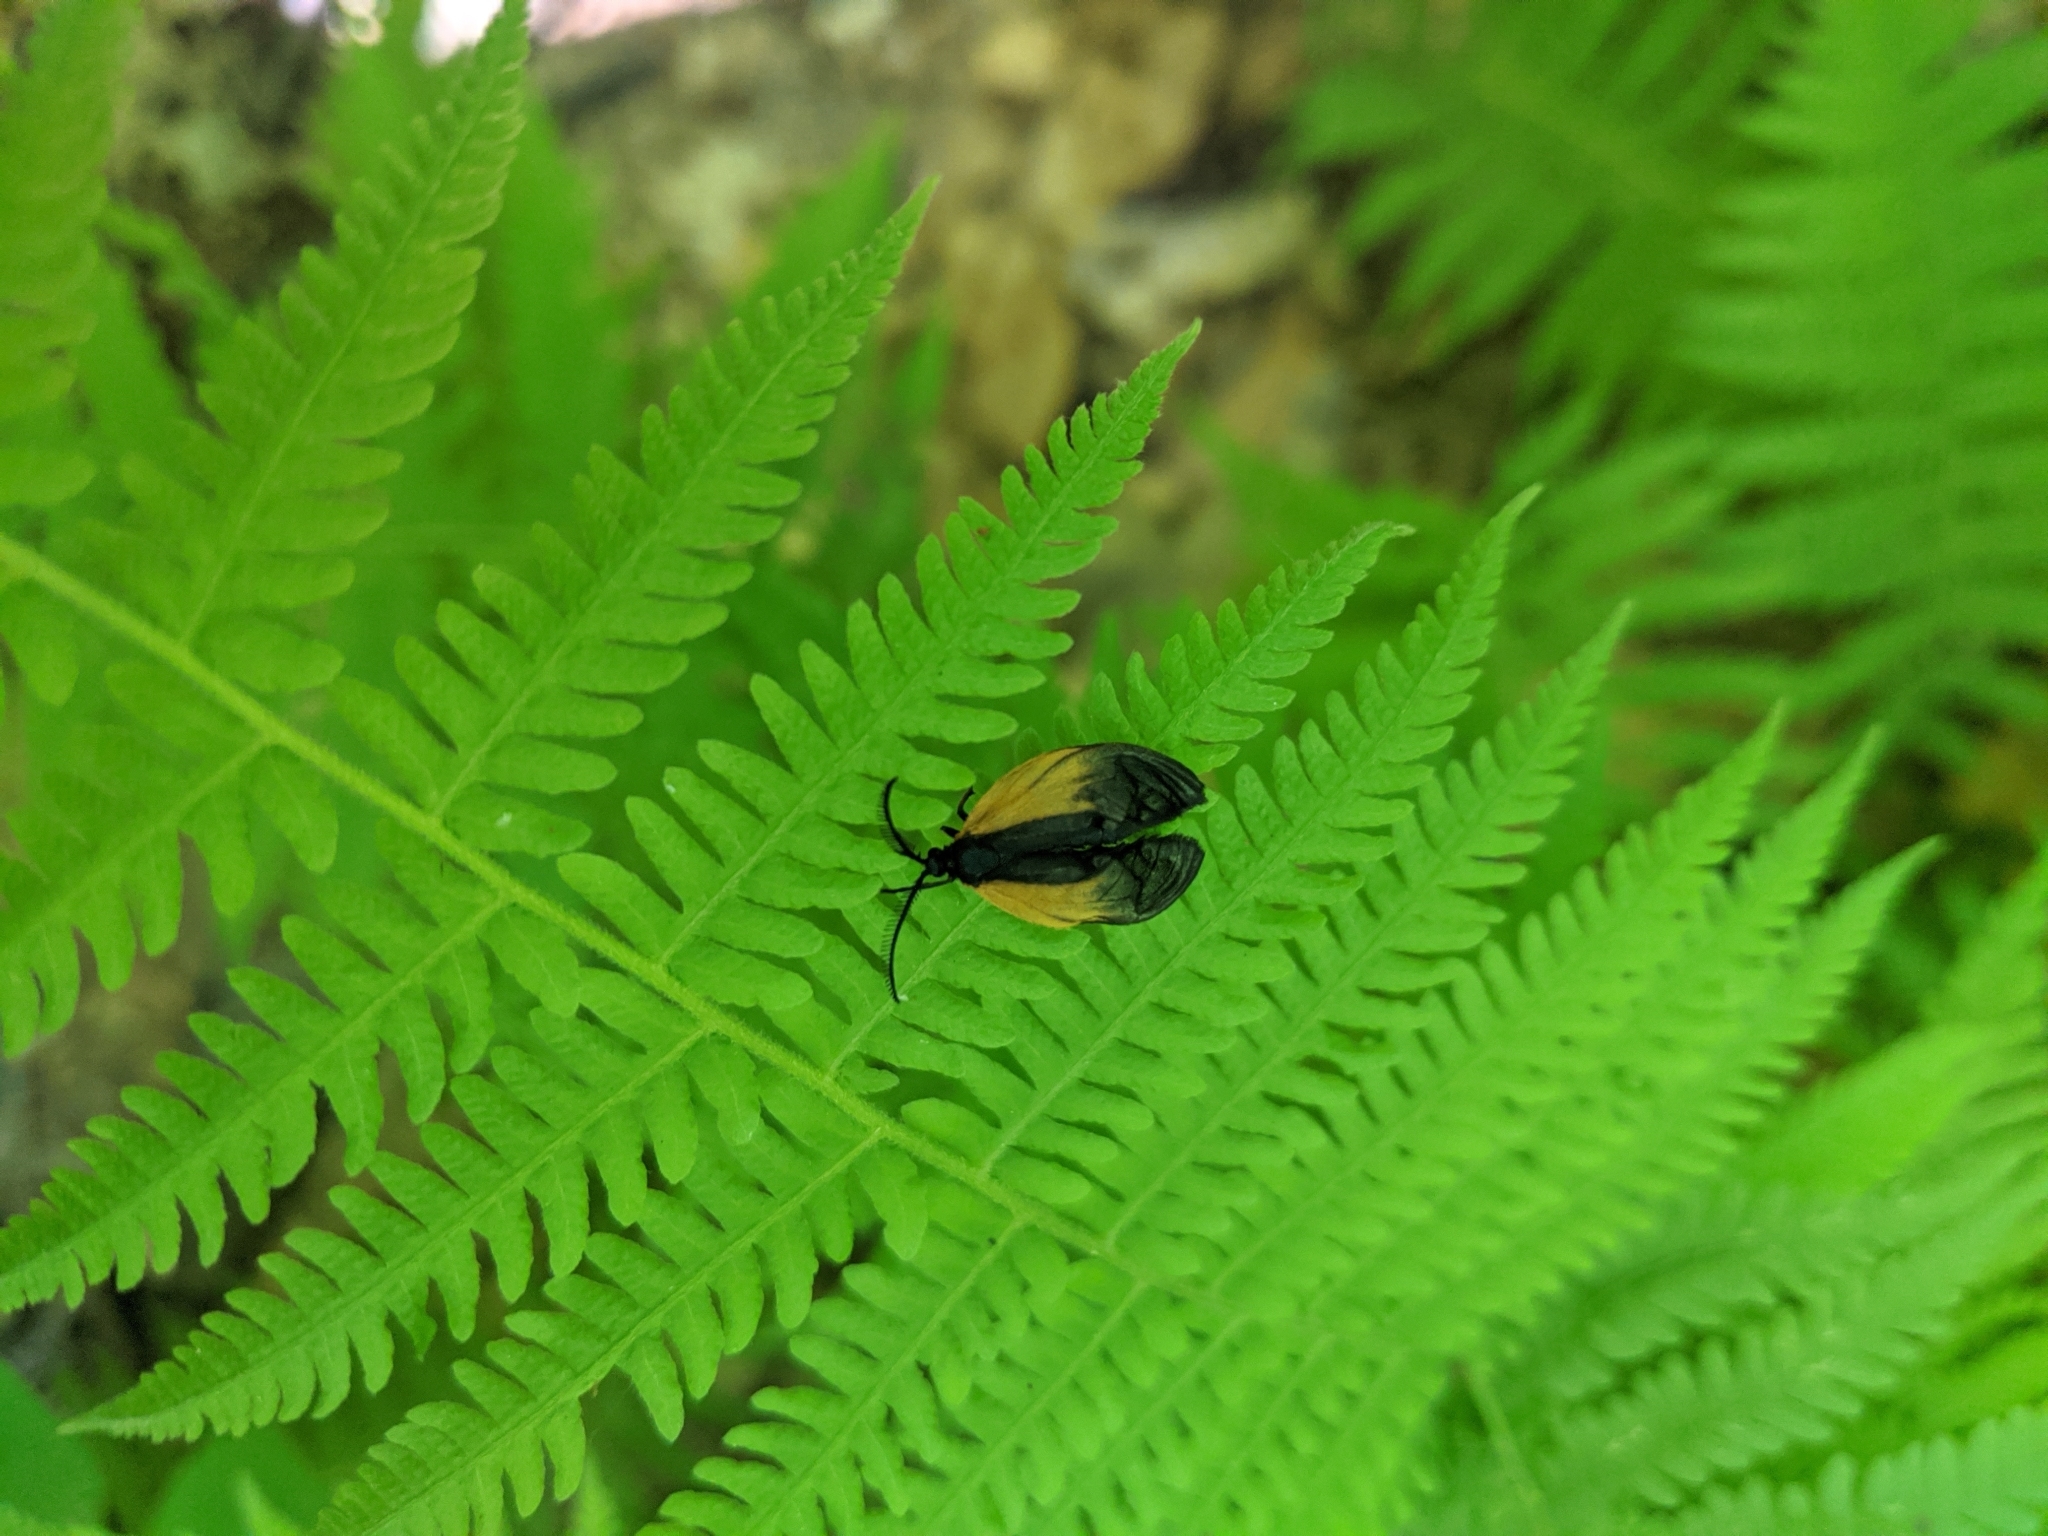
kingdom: Animalia
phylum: Arthropoda
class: Insecta
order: Lepidoptera
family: Zygaenidae
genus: Malthaca
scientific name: Malthaca dimidiata
